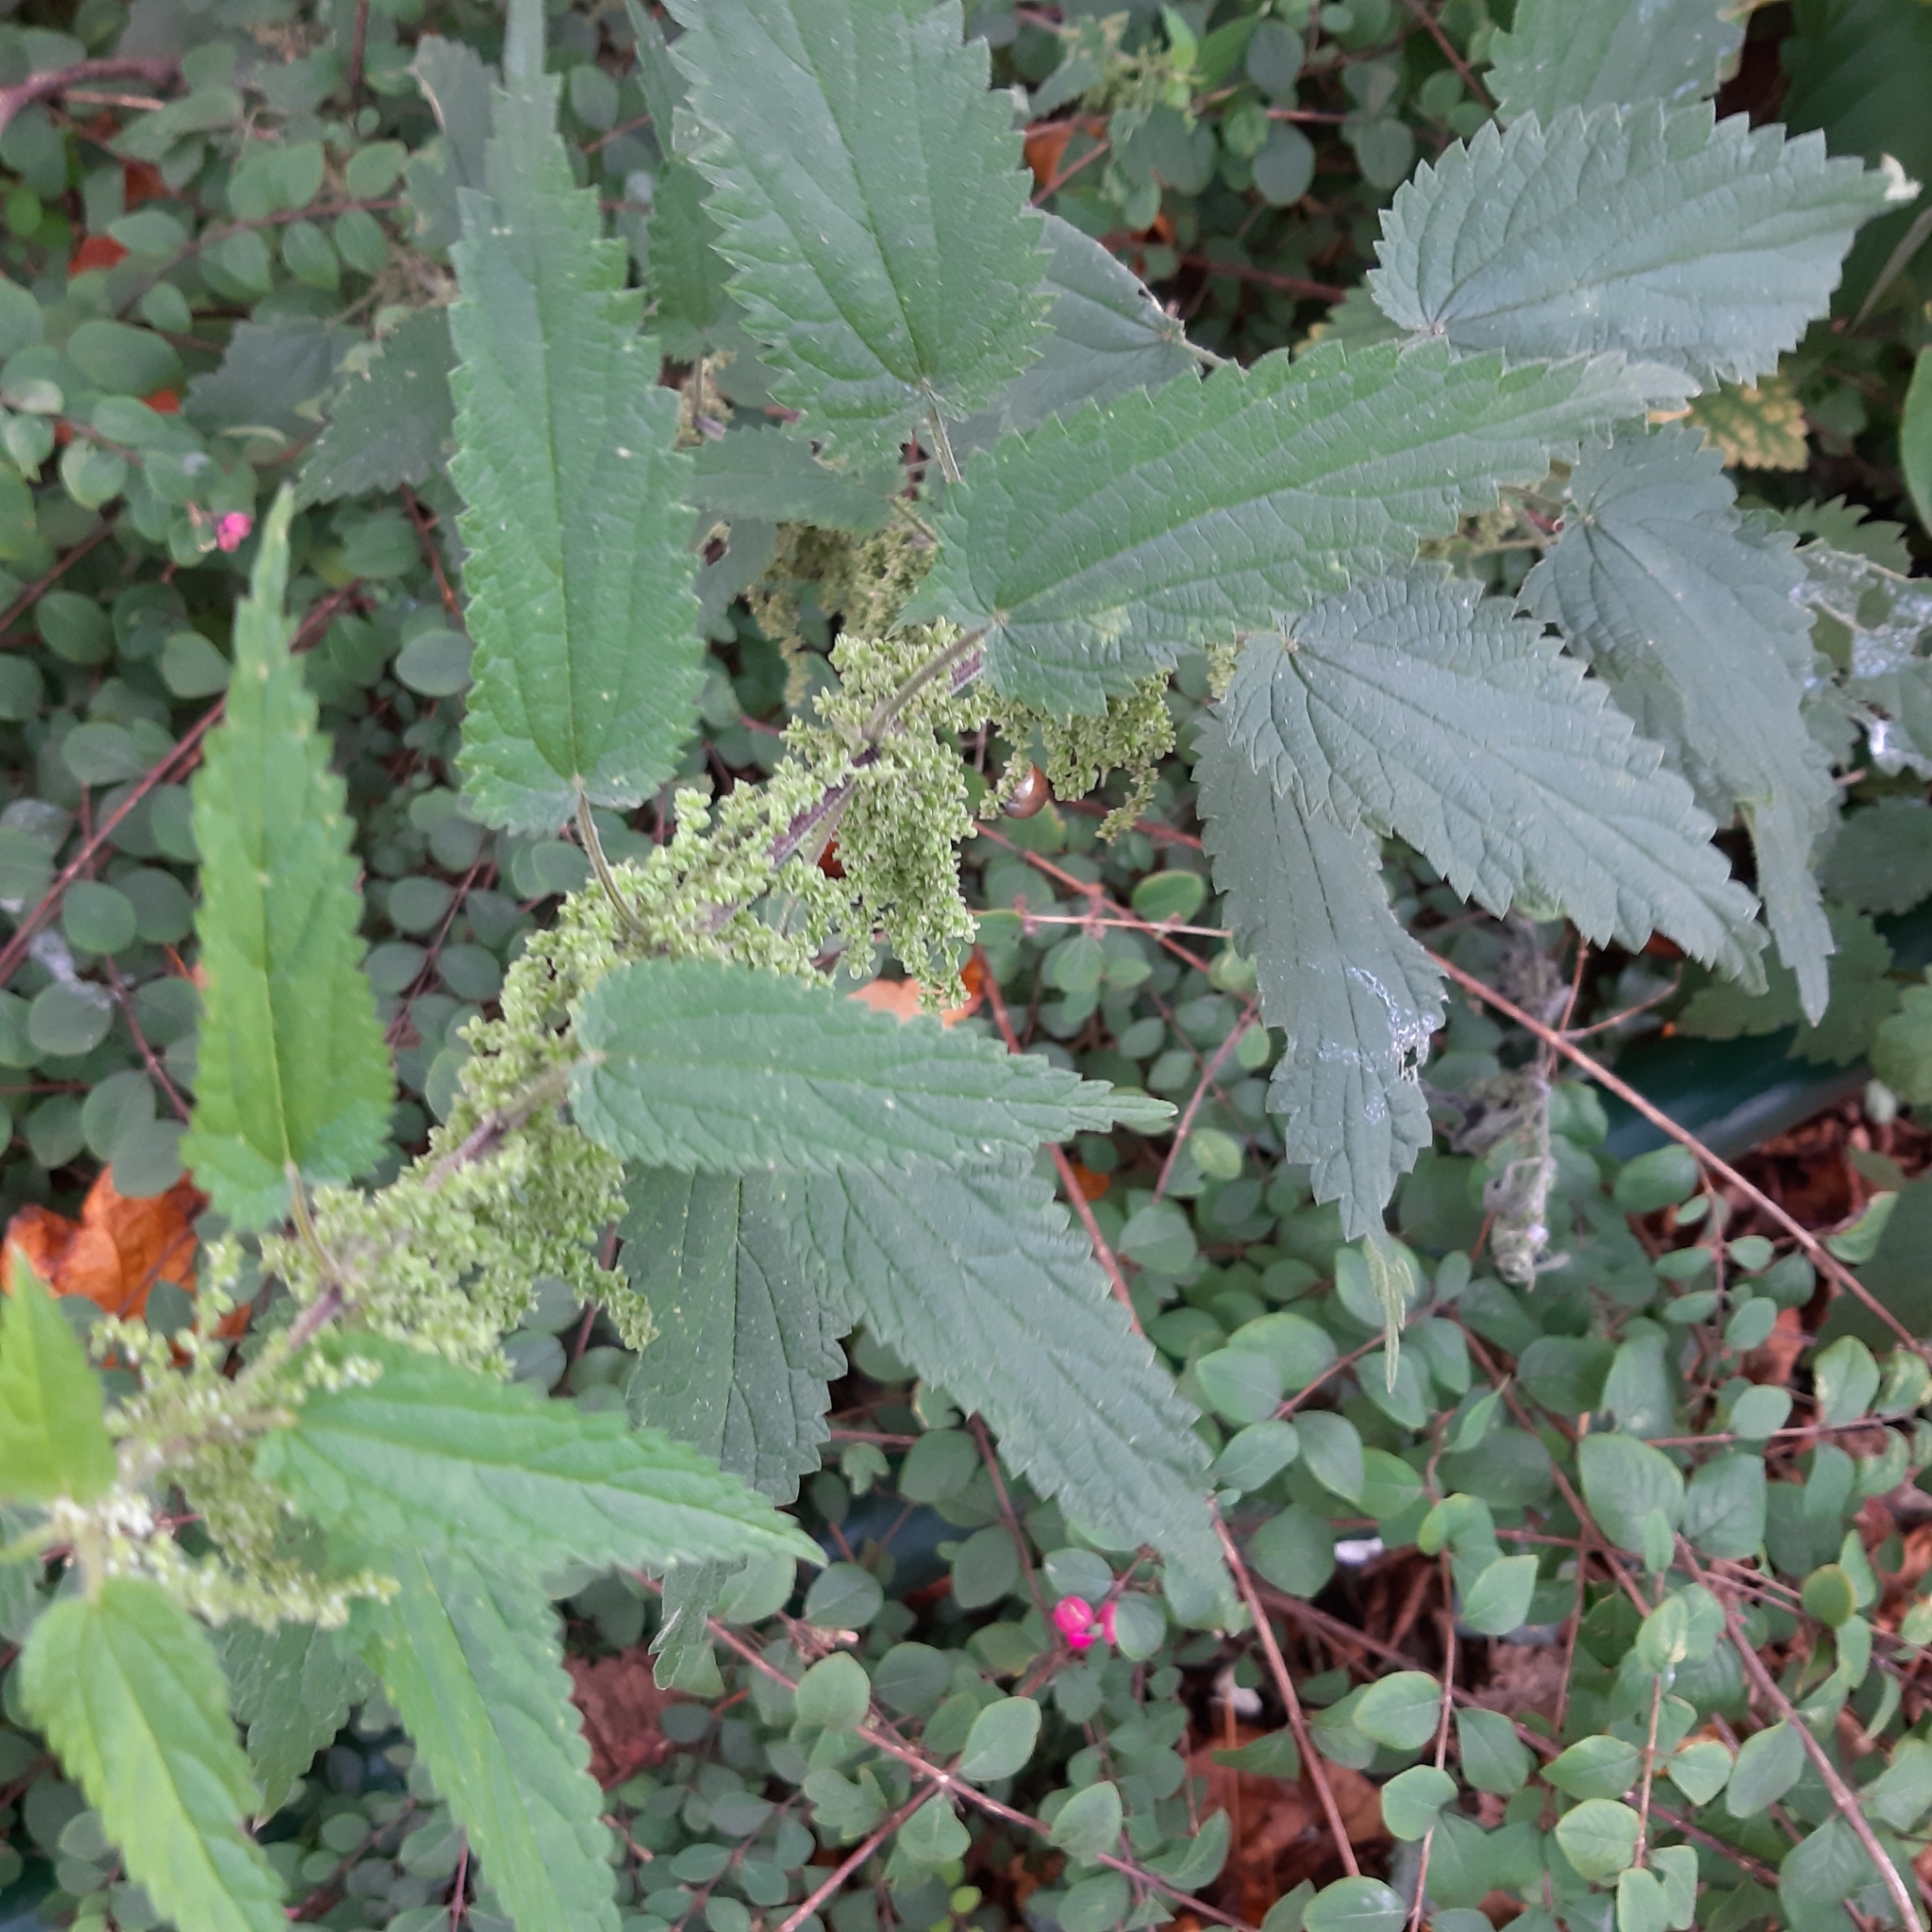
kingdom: Plantae
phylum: Tracheophyta
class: Magnoliopsida
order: Rosales
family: Urticaceae
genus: Urtica
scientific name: Urtica dioica
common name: Common nettle
